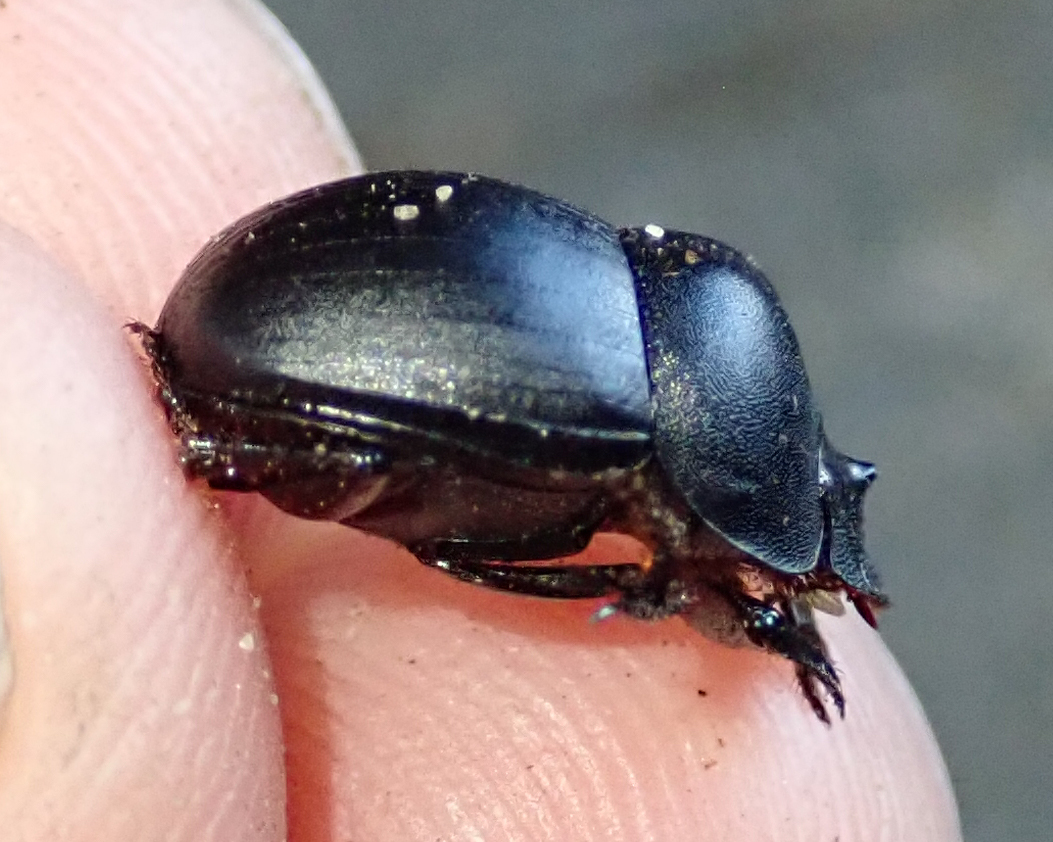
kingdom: Animalia
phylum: Arthropoda
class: Insecta
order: Coleoptera
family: Scarabaeidae
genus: Metacatharsius
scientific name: Metacatharsius opacus
